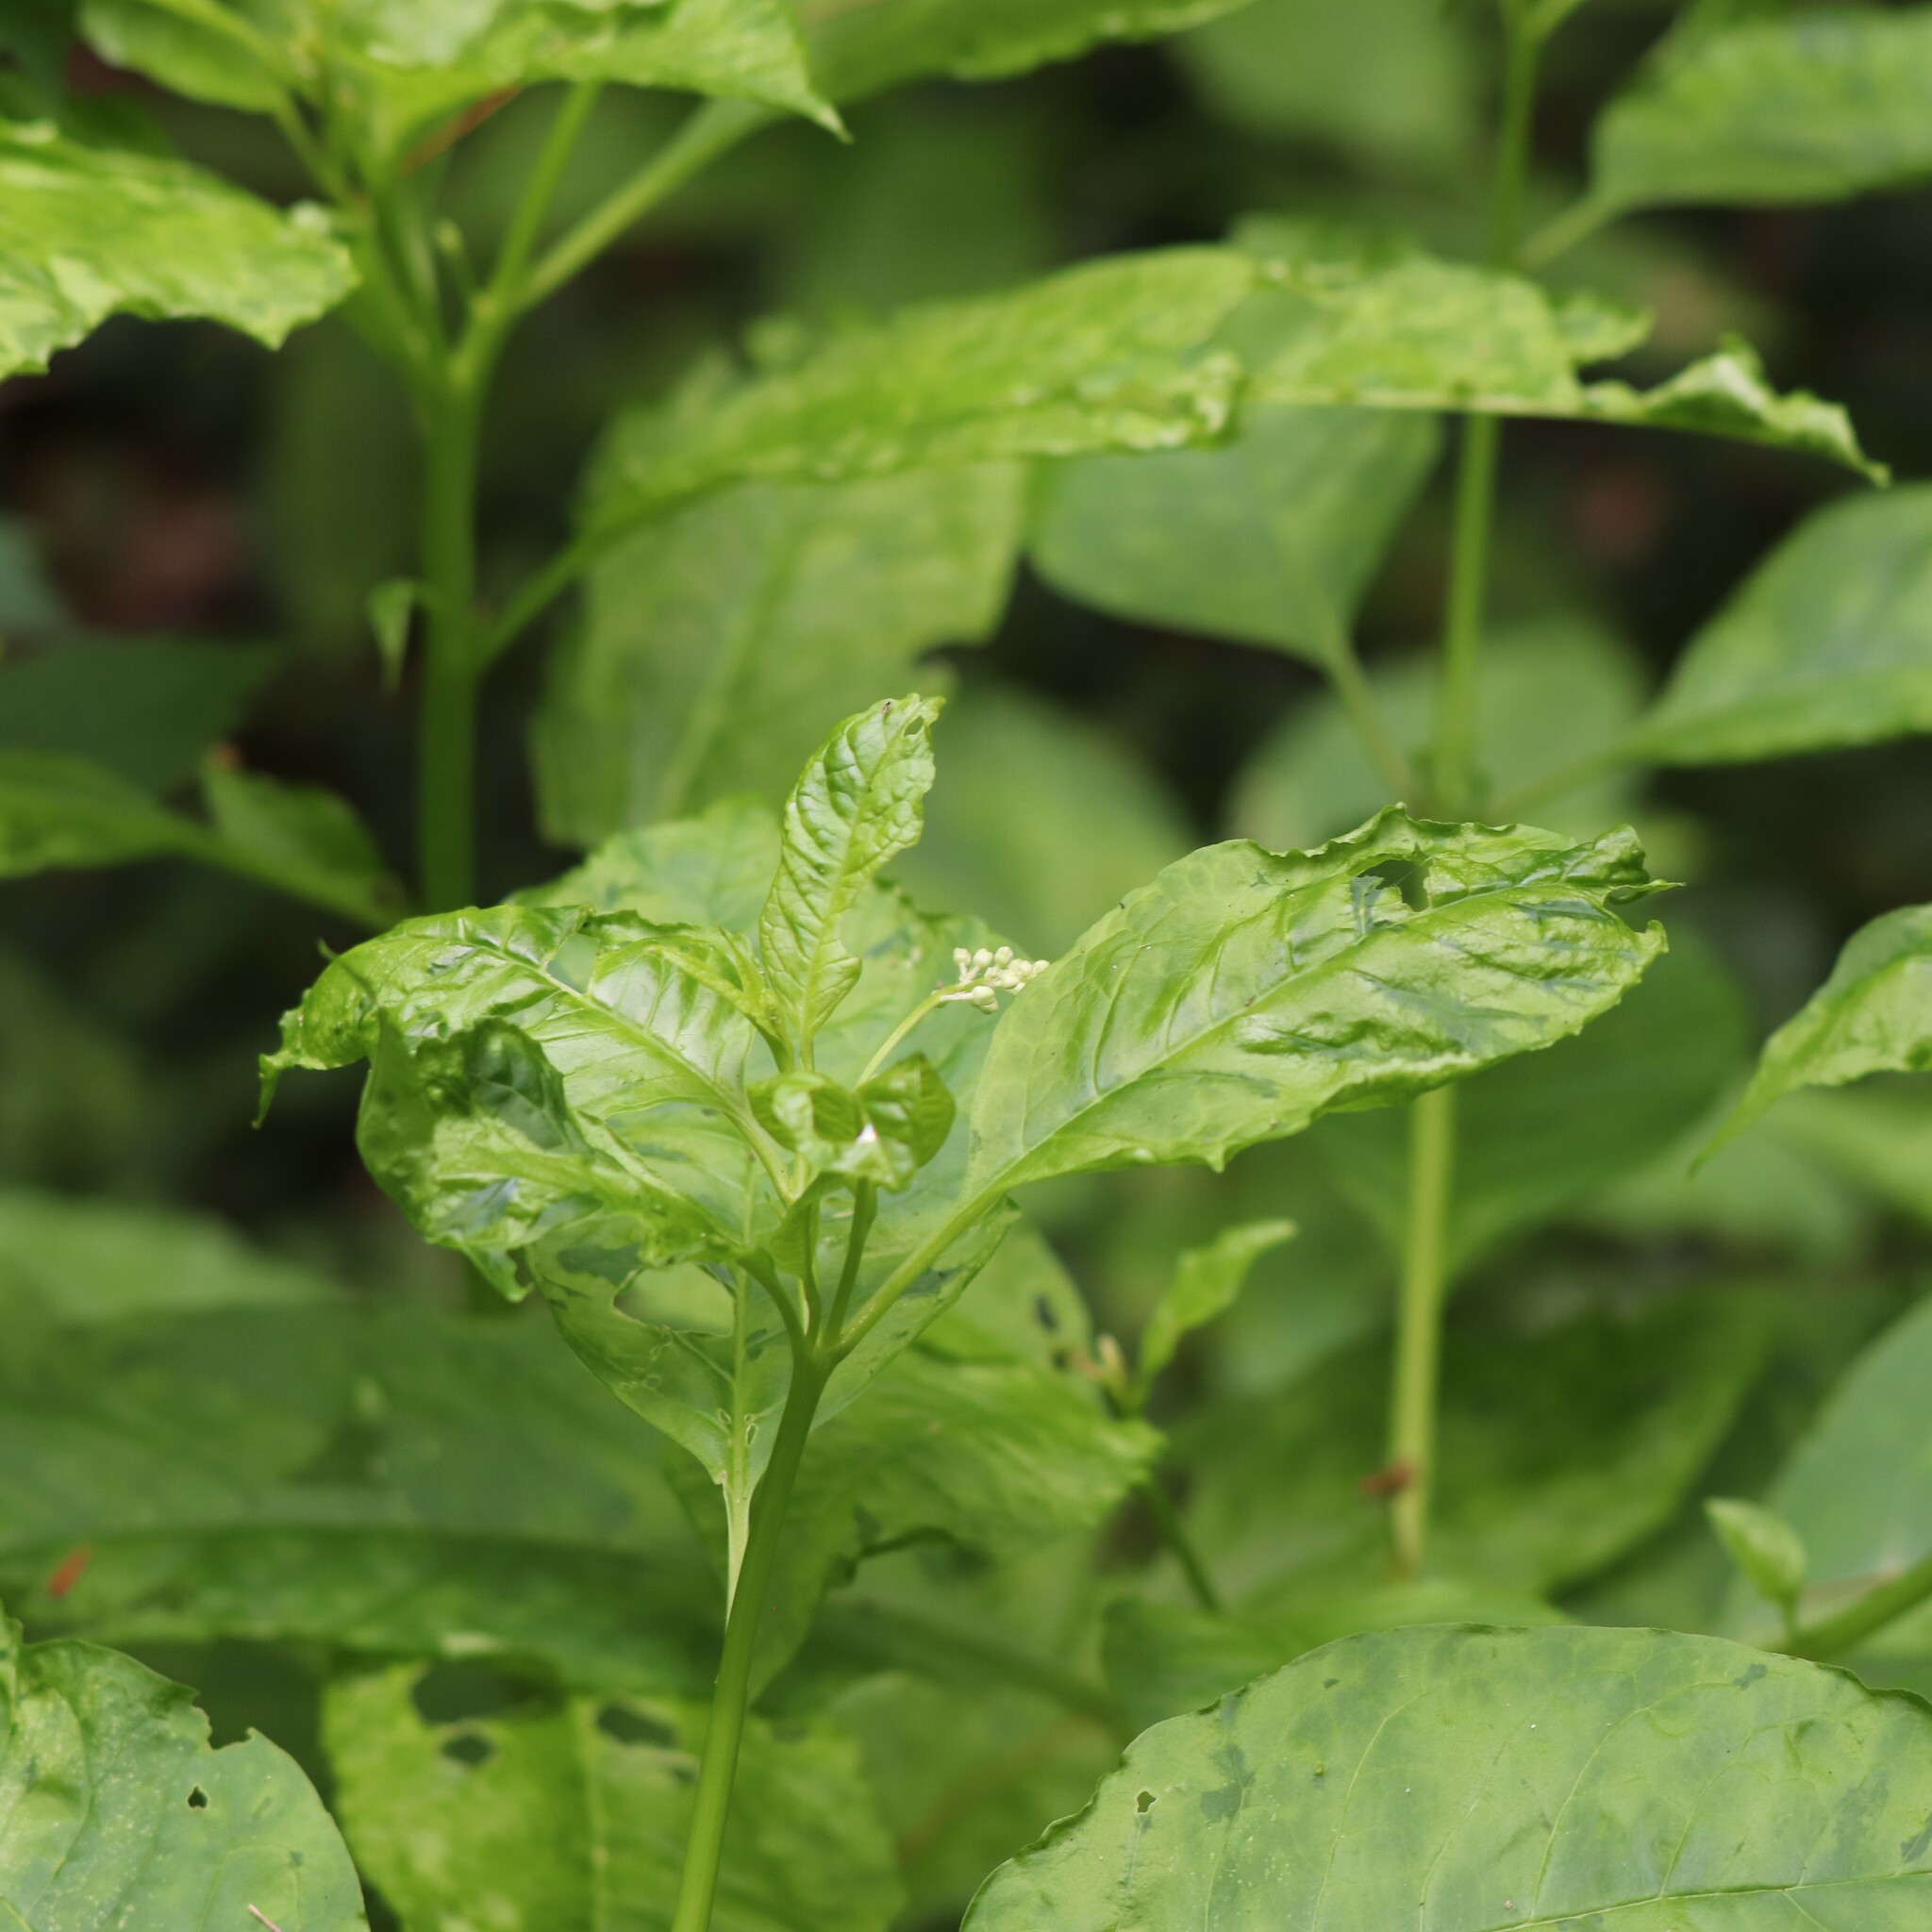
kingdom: Plantae
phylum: Tracheophyta
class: Magnoliopsida
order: Caryophyllales
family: Phytolaccaceae
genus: Phytolacca
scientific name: Phytolacca americana
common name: American pokeweed
